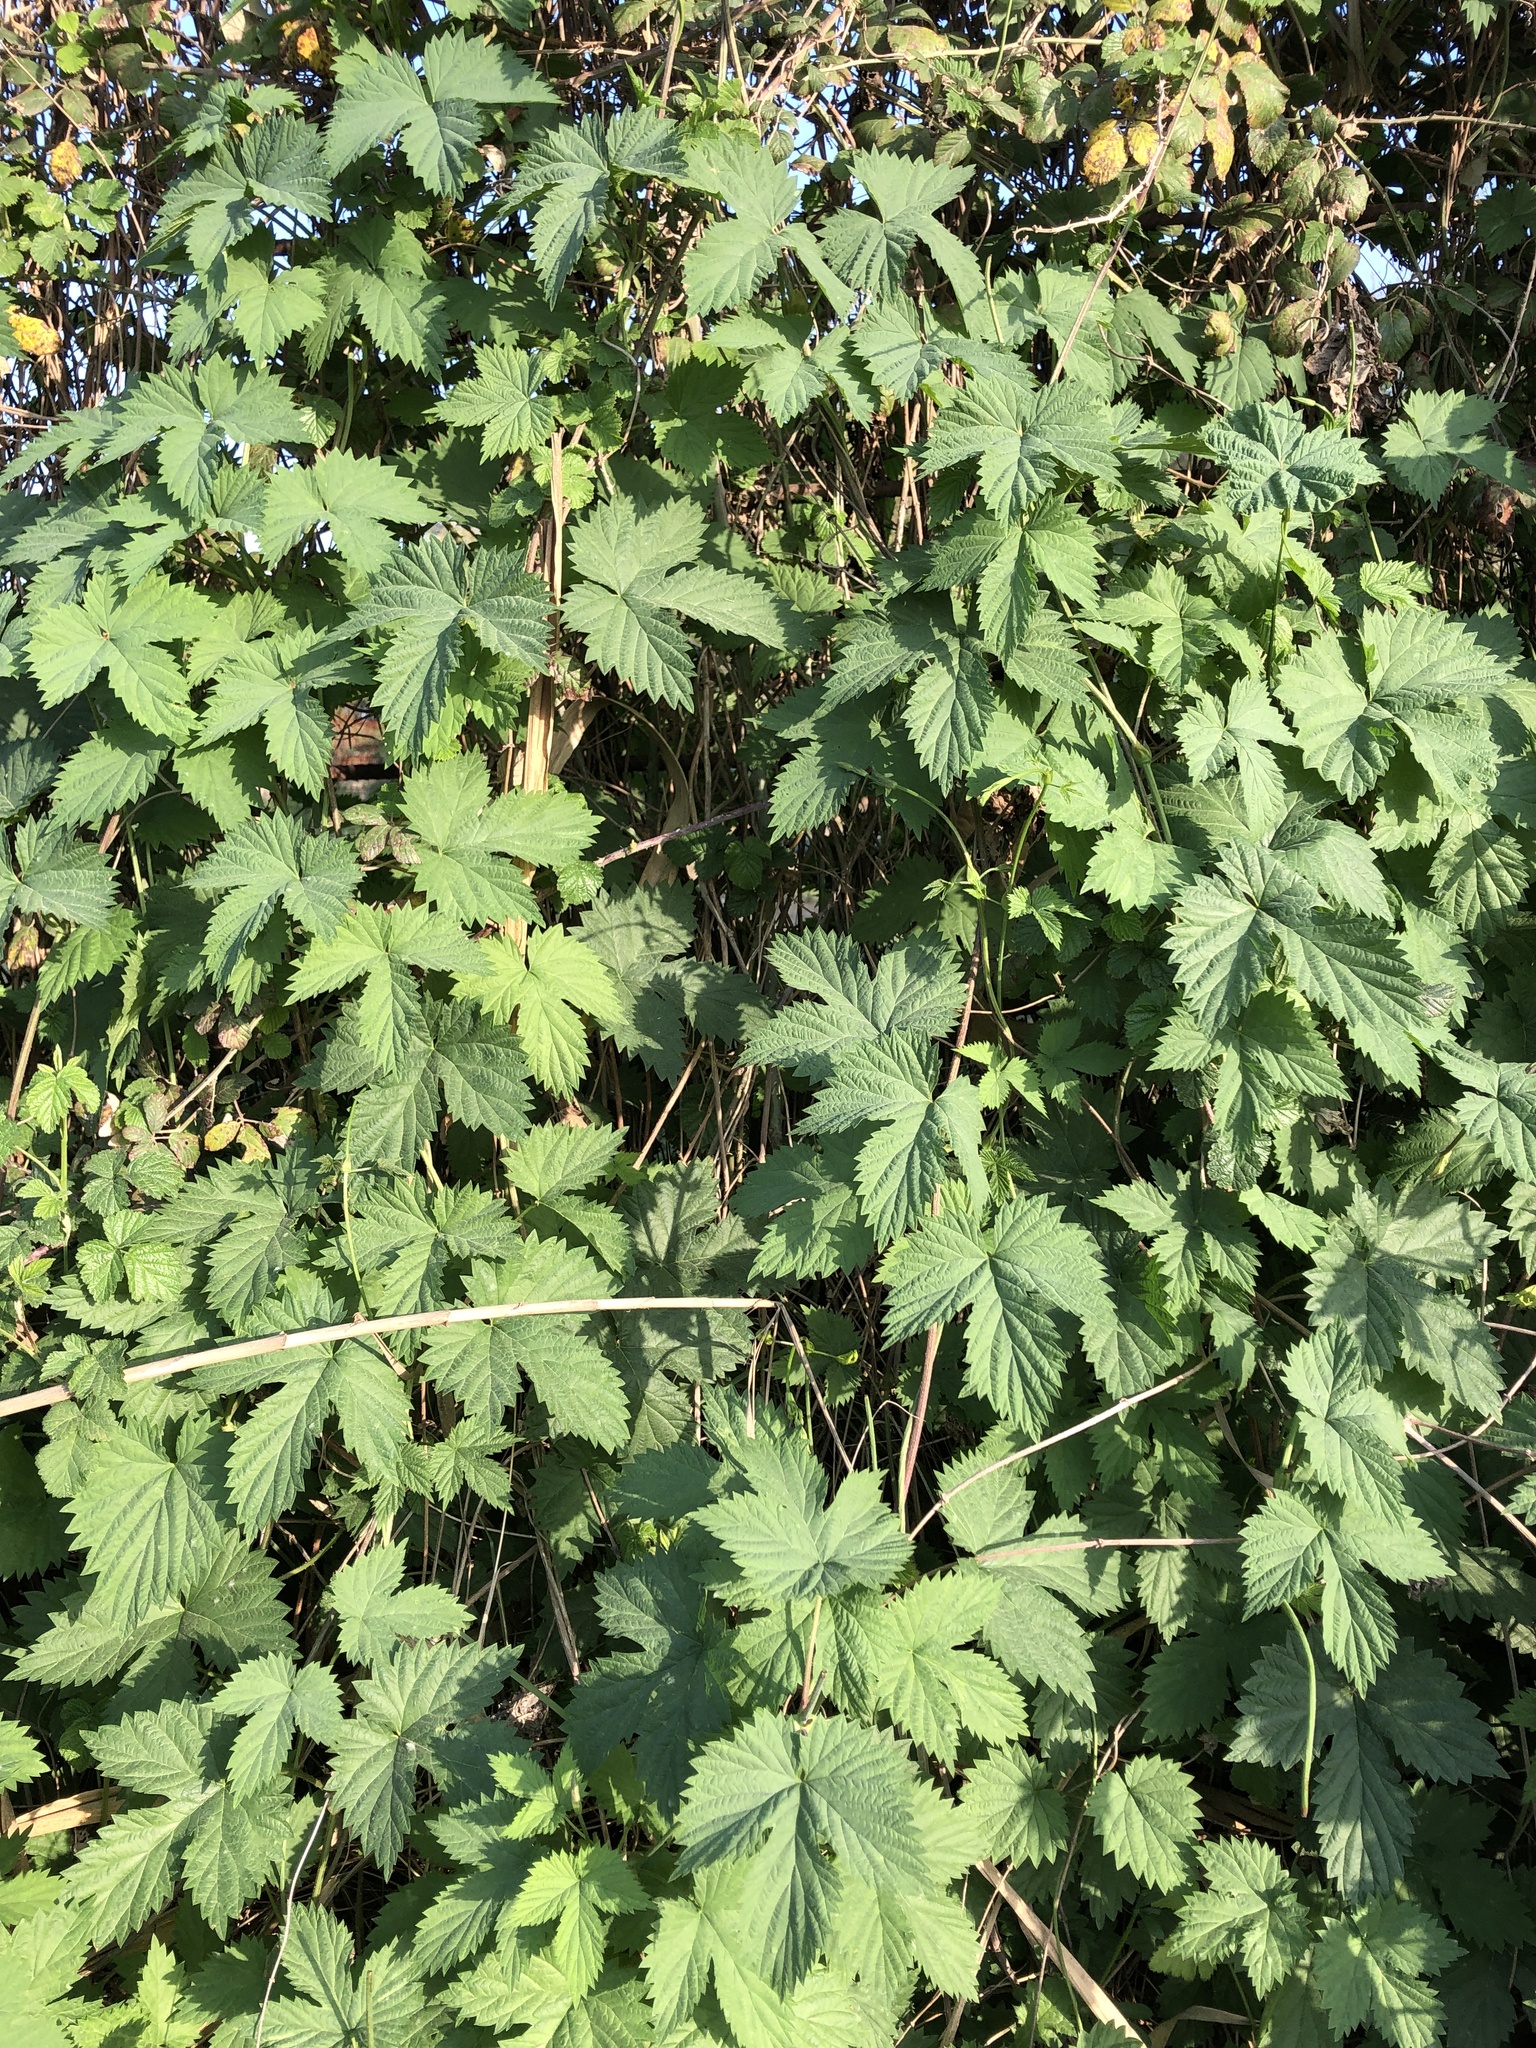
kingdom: Plantae
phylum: Tracheophyta
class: Magnoliopsida
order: Rosales
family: Cannabaceae
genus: Humulus
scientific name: Humulus lupulus
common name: Hop
